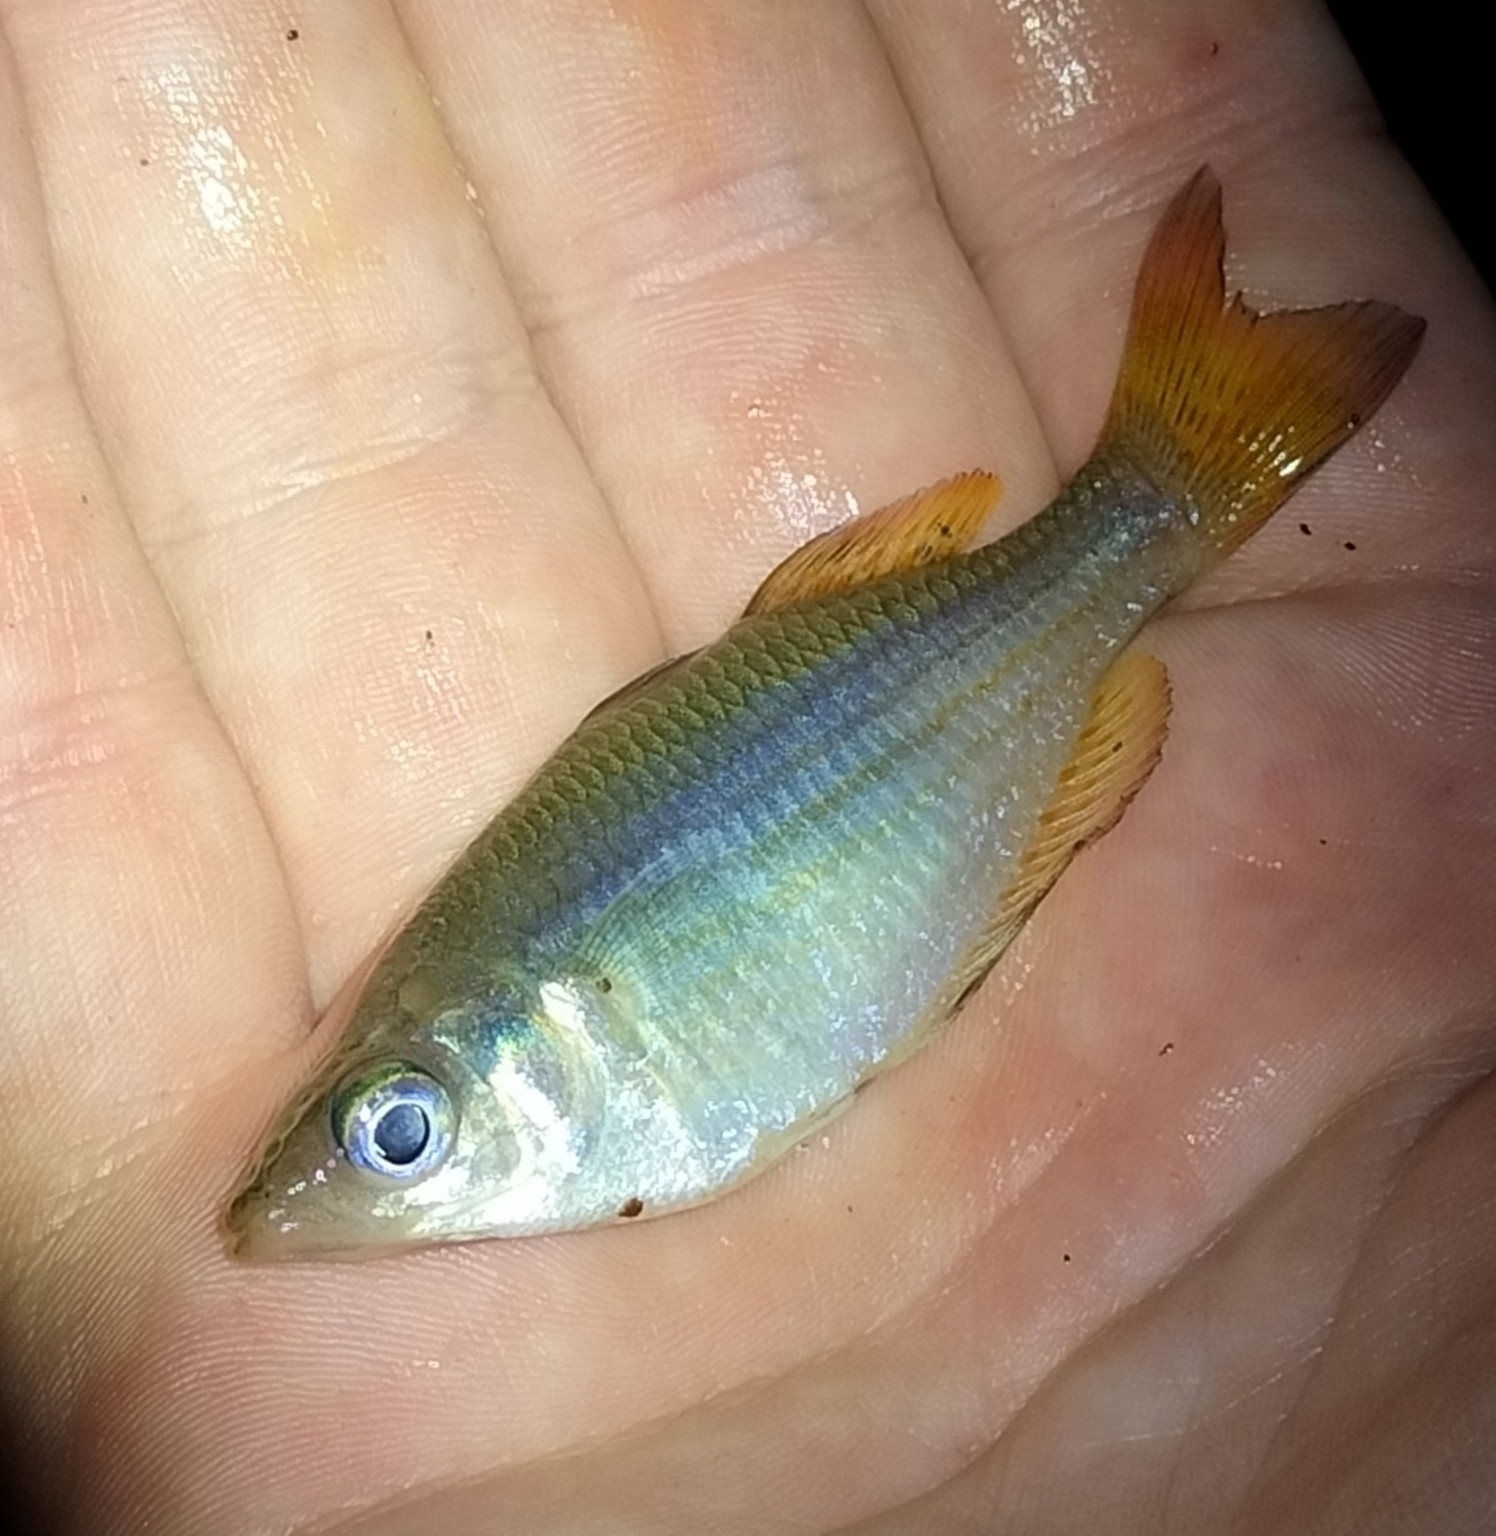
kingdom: Animalia
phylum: Chordata
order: Atheriniformes
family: Melanotaeniidae
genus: Melanotaenia
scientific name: Melanotaenia splendida
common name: Checkered rainbowfish
